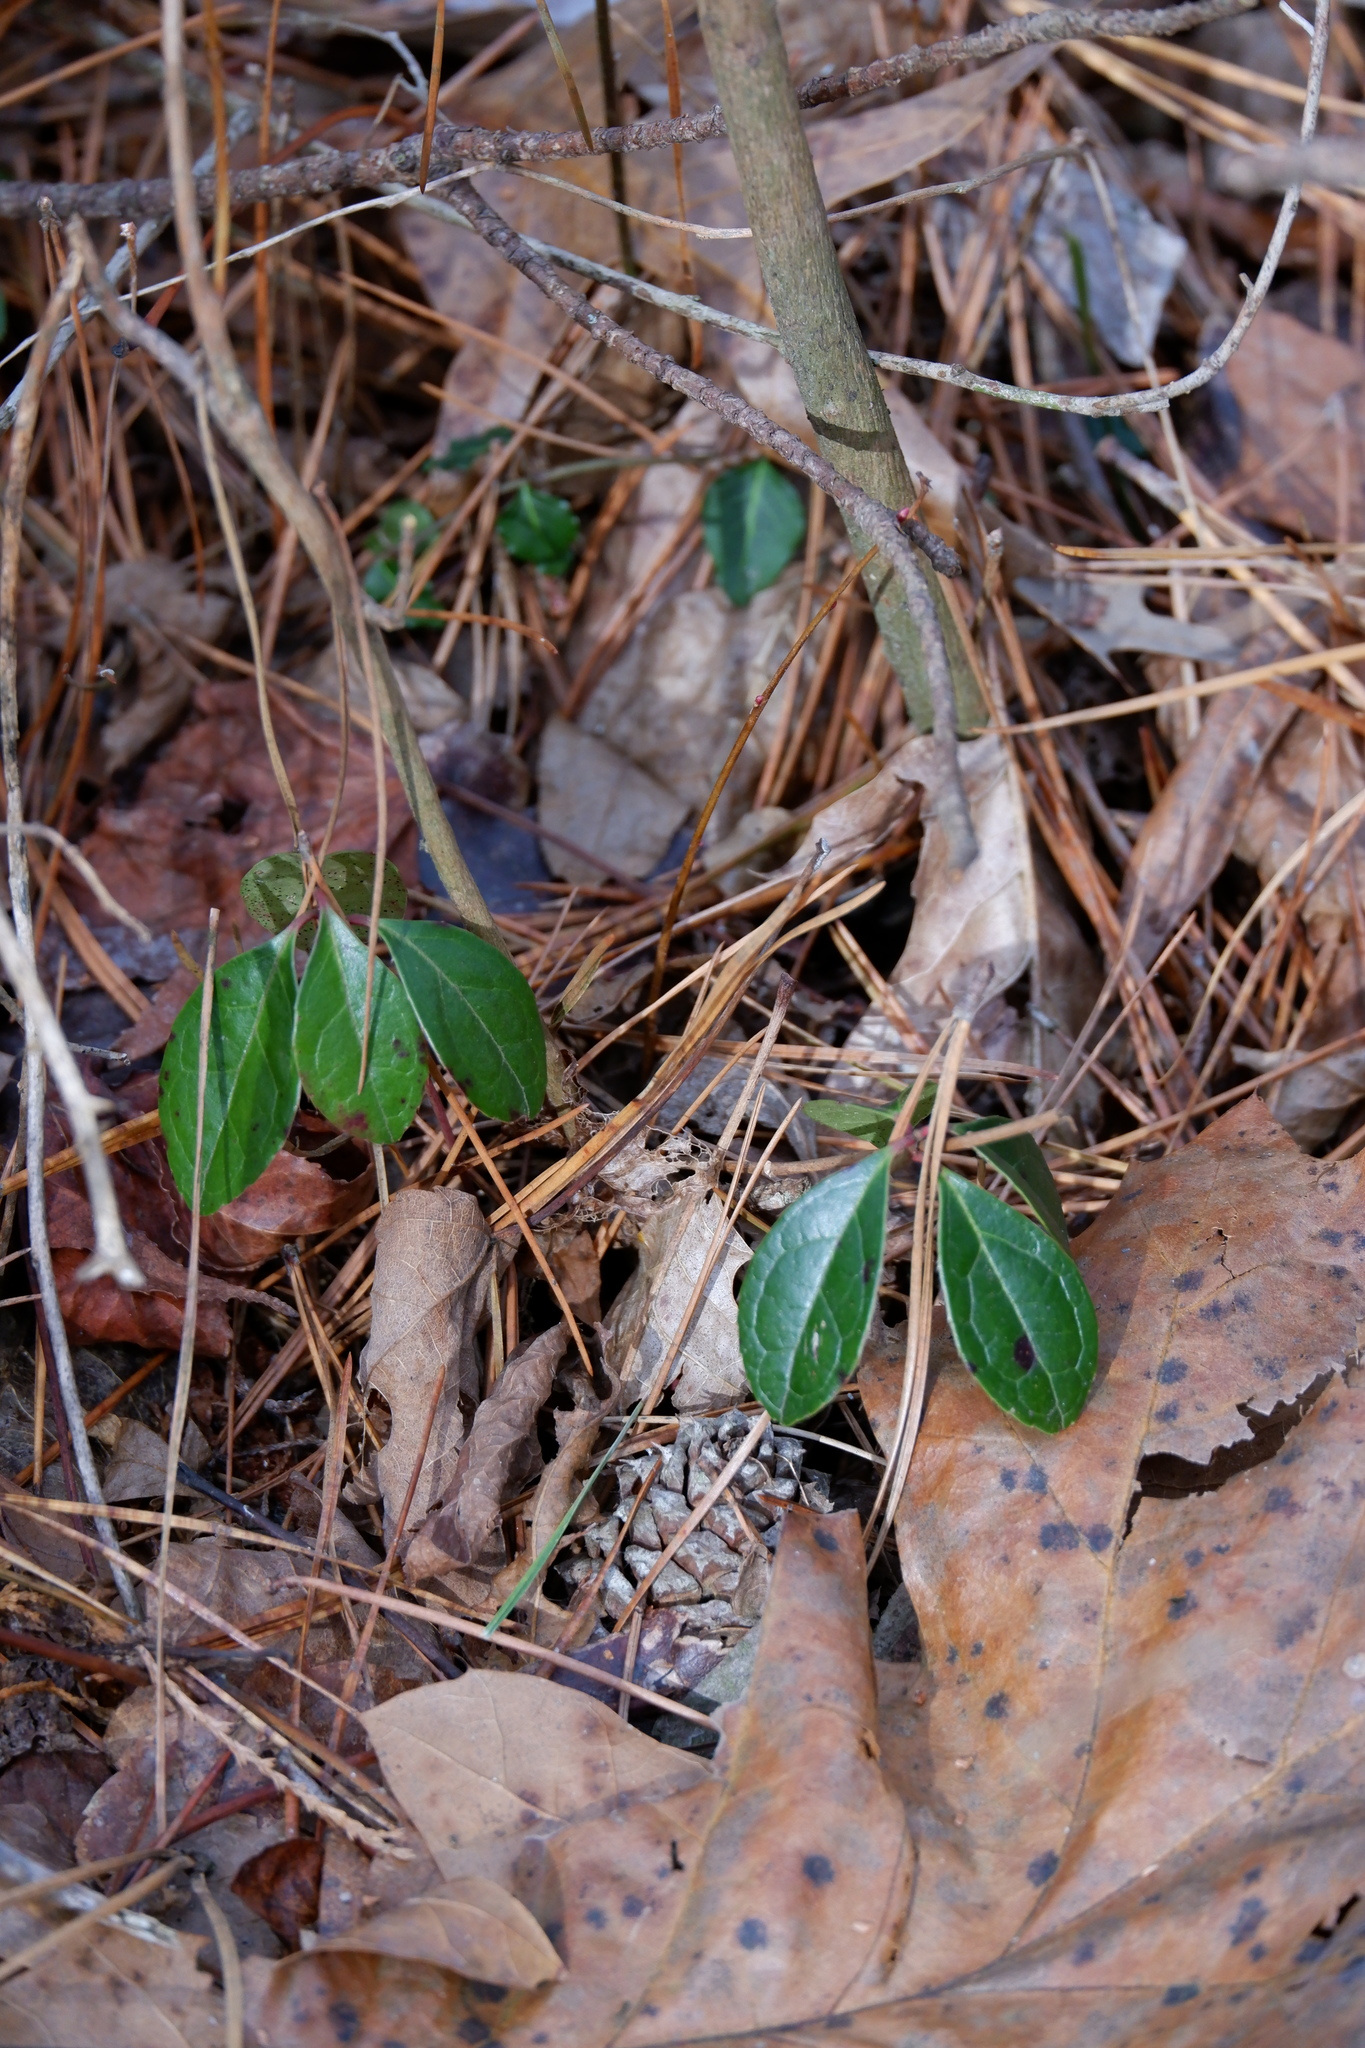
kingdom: Plantae
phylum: Tracheophyta
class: Magnoliopsida
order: Ericales
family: Ericaceae
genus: Gaultheria
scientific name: Gaultheria procumbens
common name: Checkerberry
